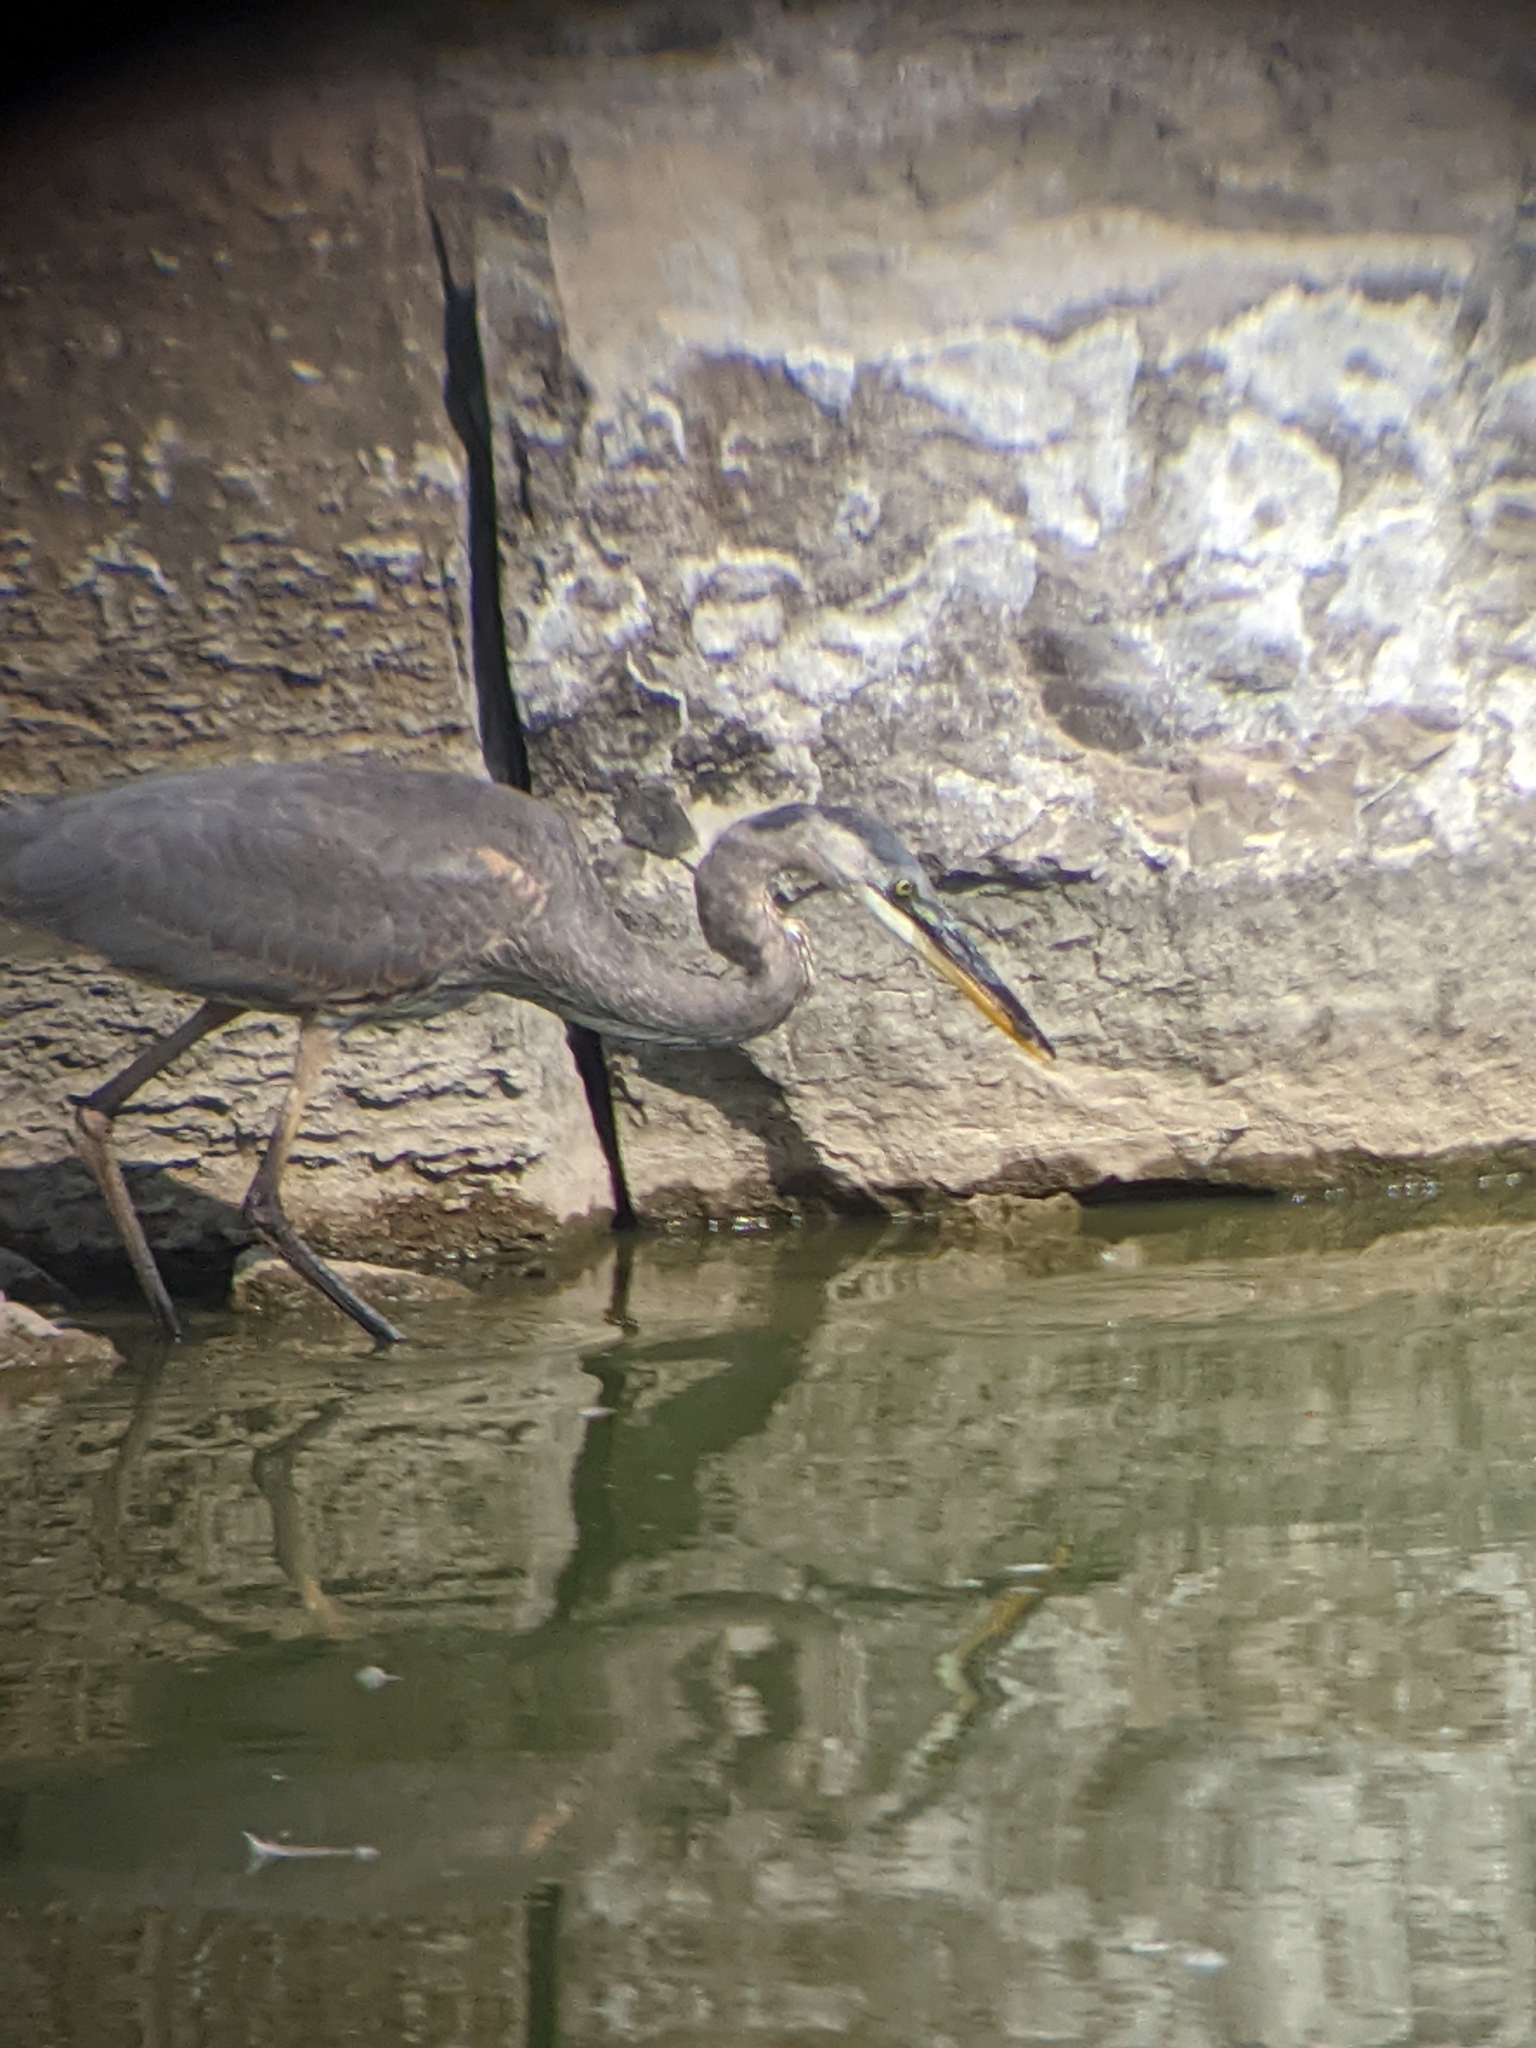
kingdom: Animalia
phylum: Chordata
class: Aves
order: Pelecaniformes
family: Ardeidae
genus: Ardea
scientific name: Ardea herodias
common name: Great blue heron
